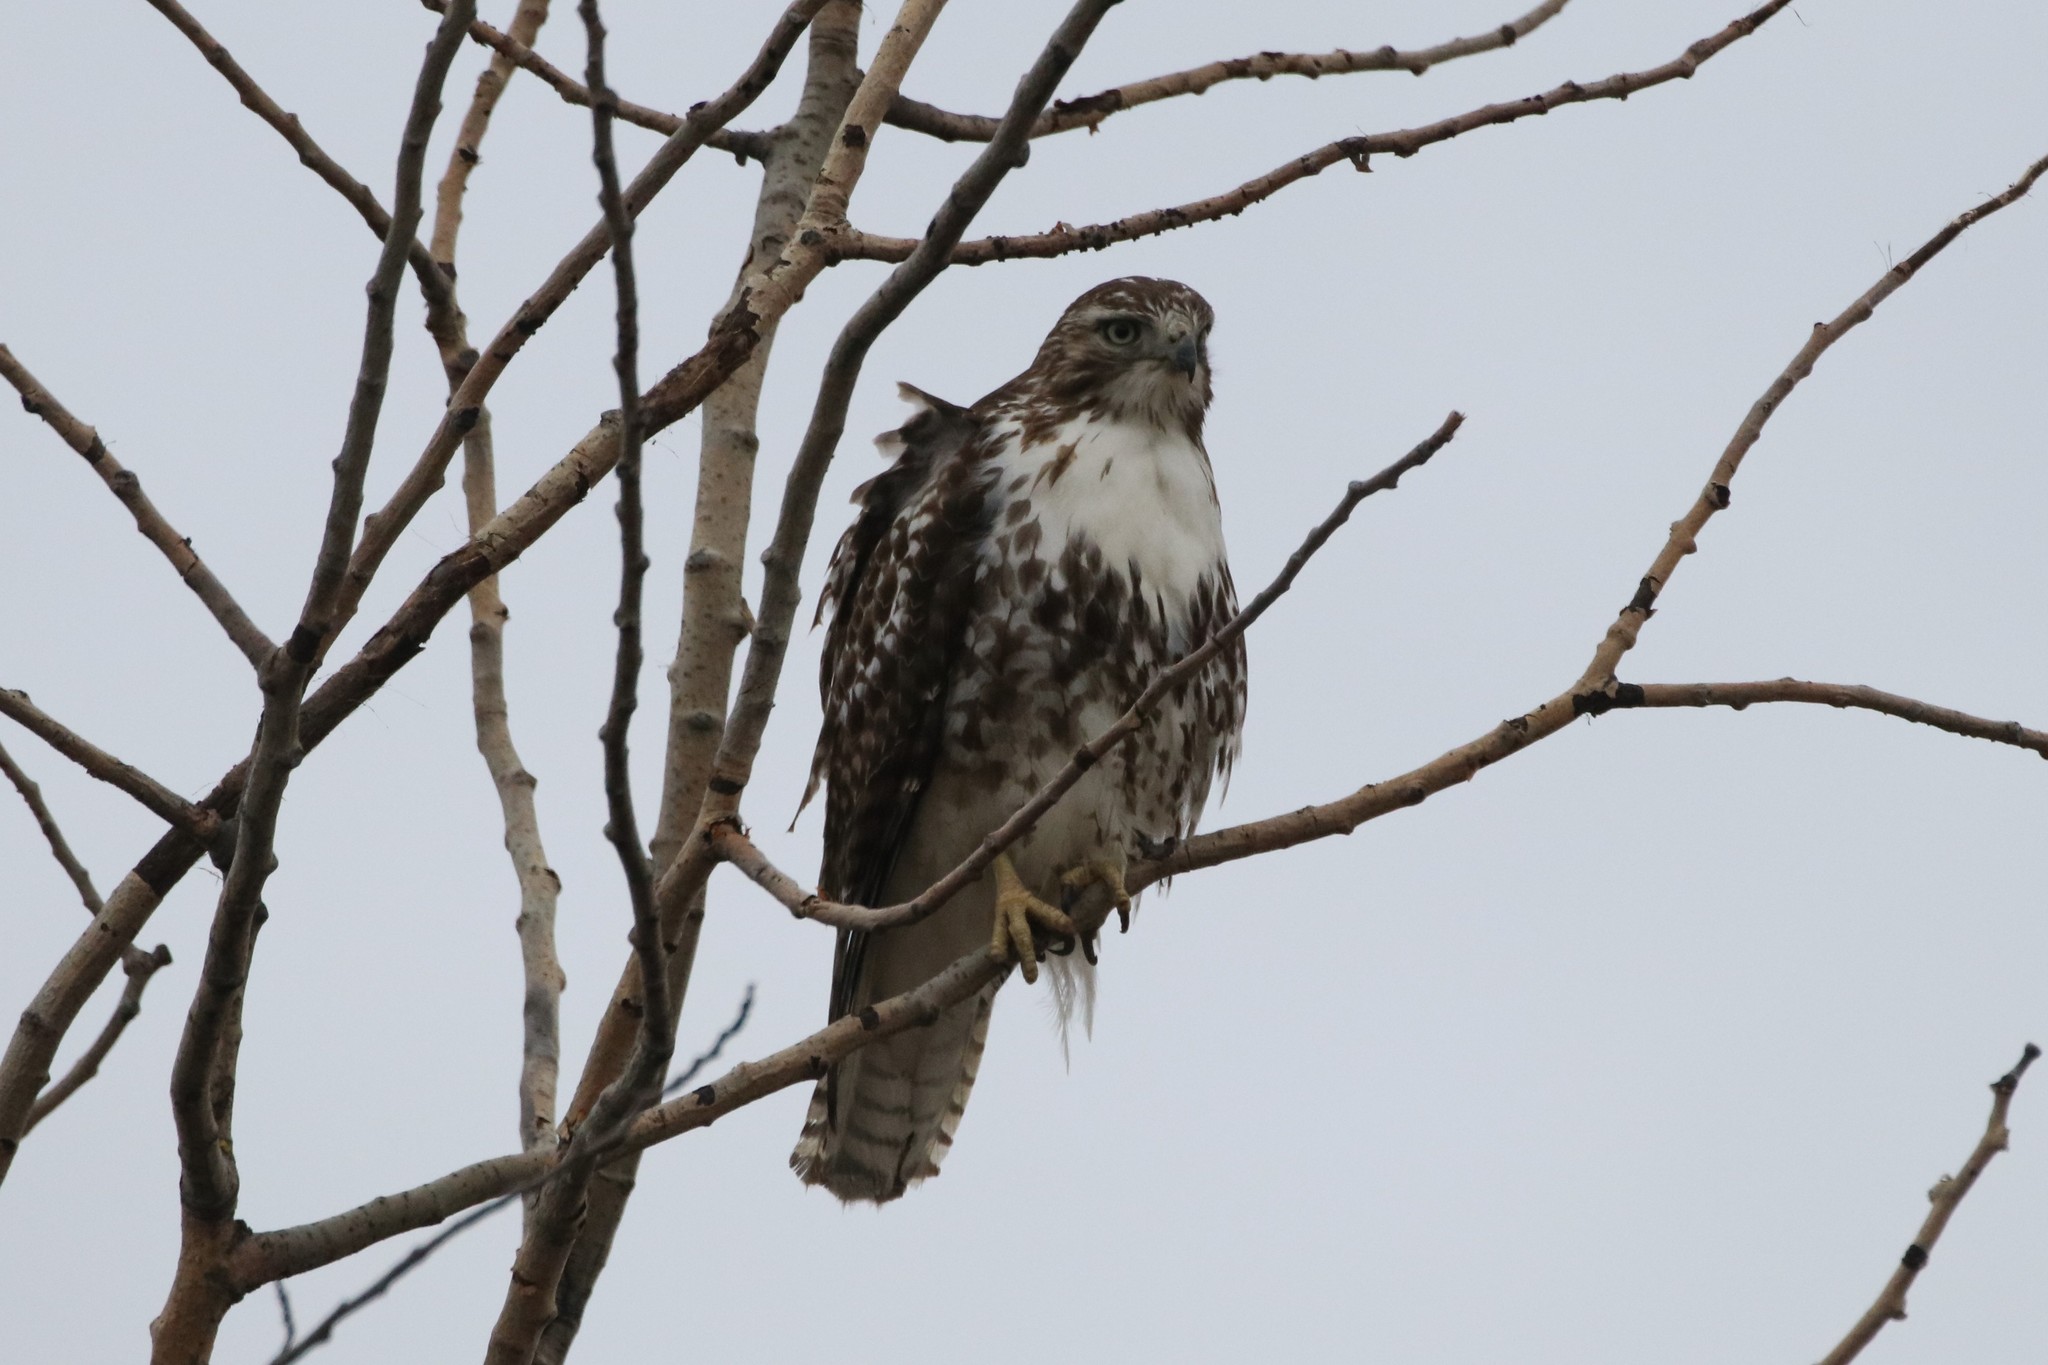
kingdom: Animalia
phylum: Chordata
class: Aves
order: Accipitriformes
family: Accipitridae
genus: Buteo
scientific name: Buteo jamaicensis
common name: Red-tailed hawk
